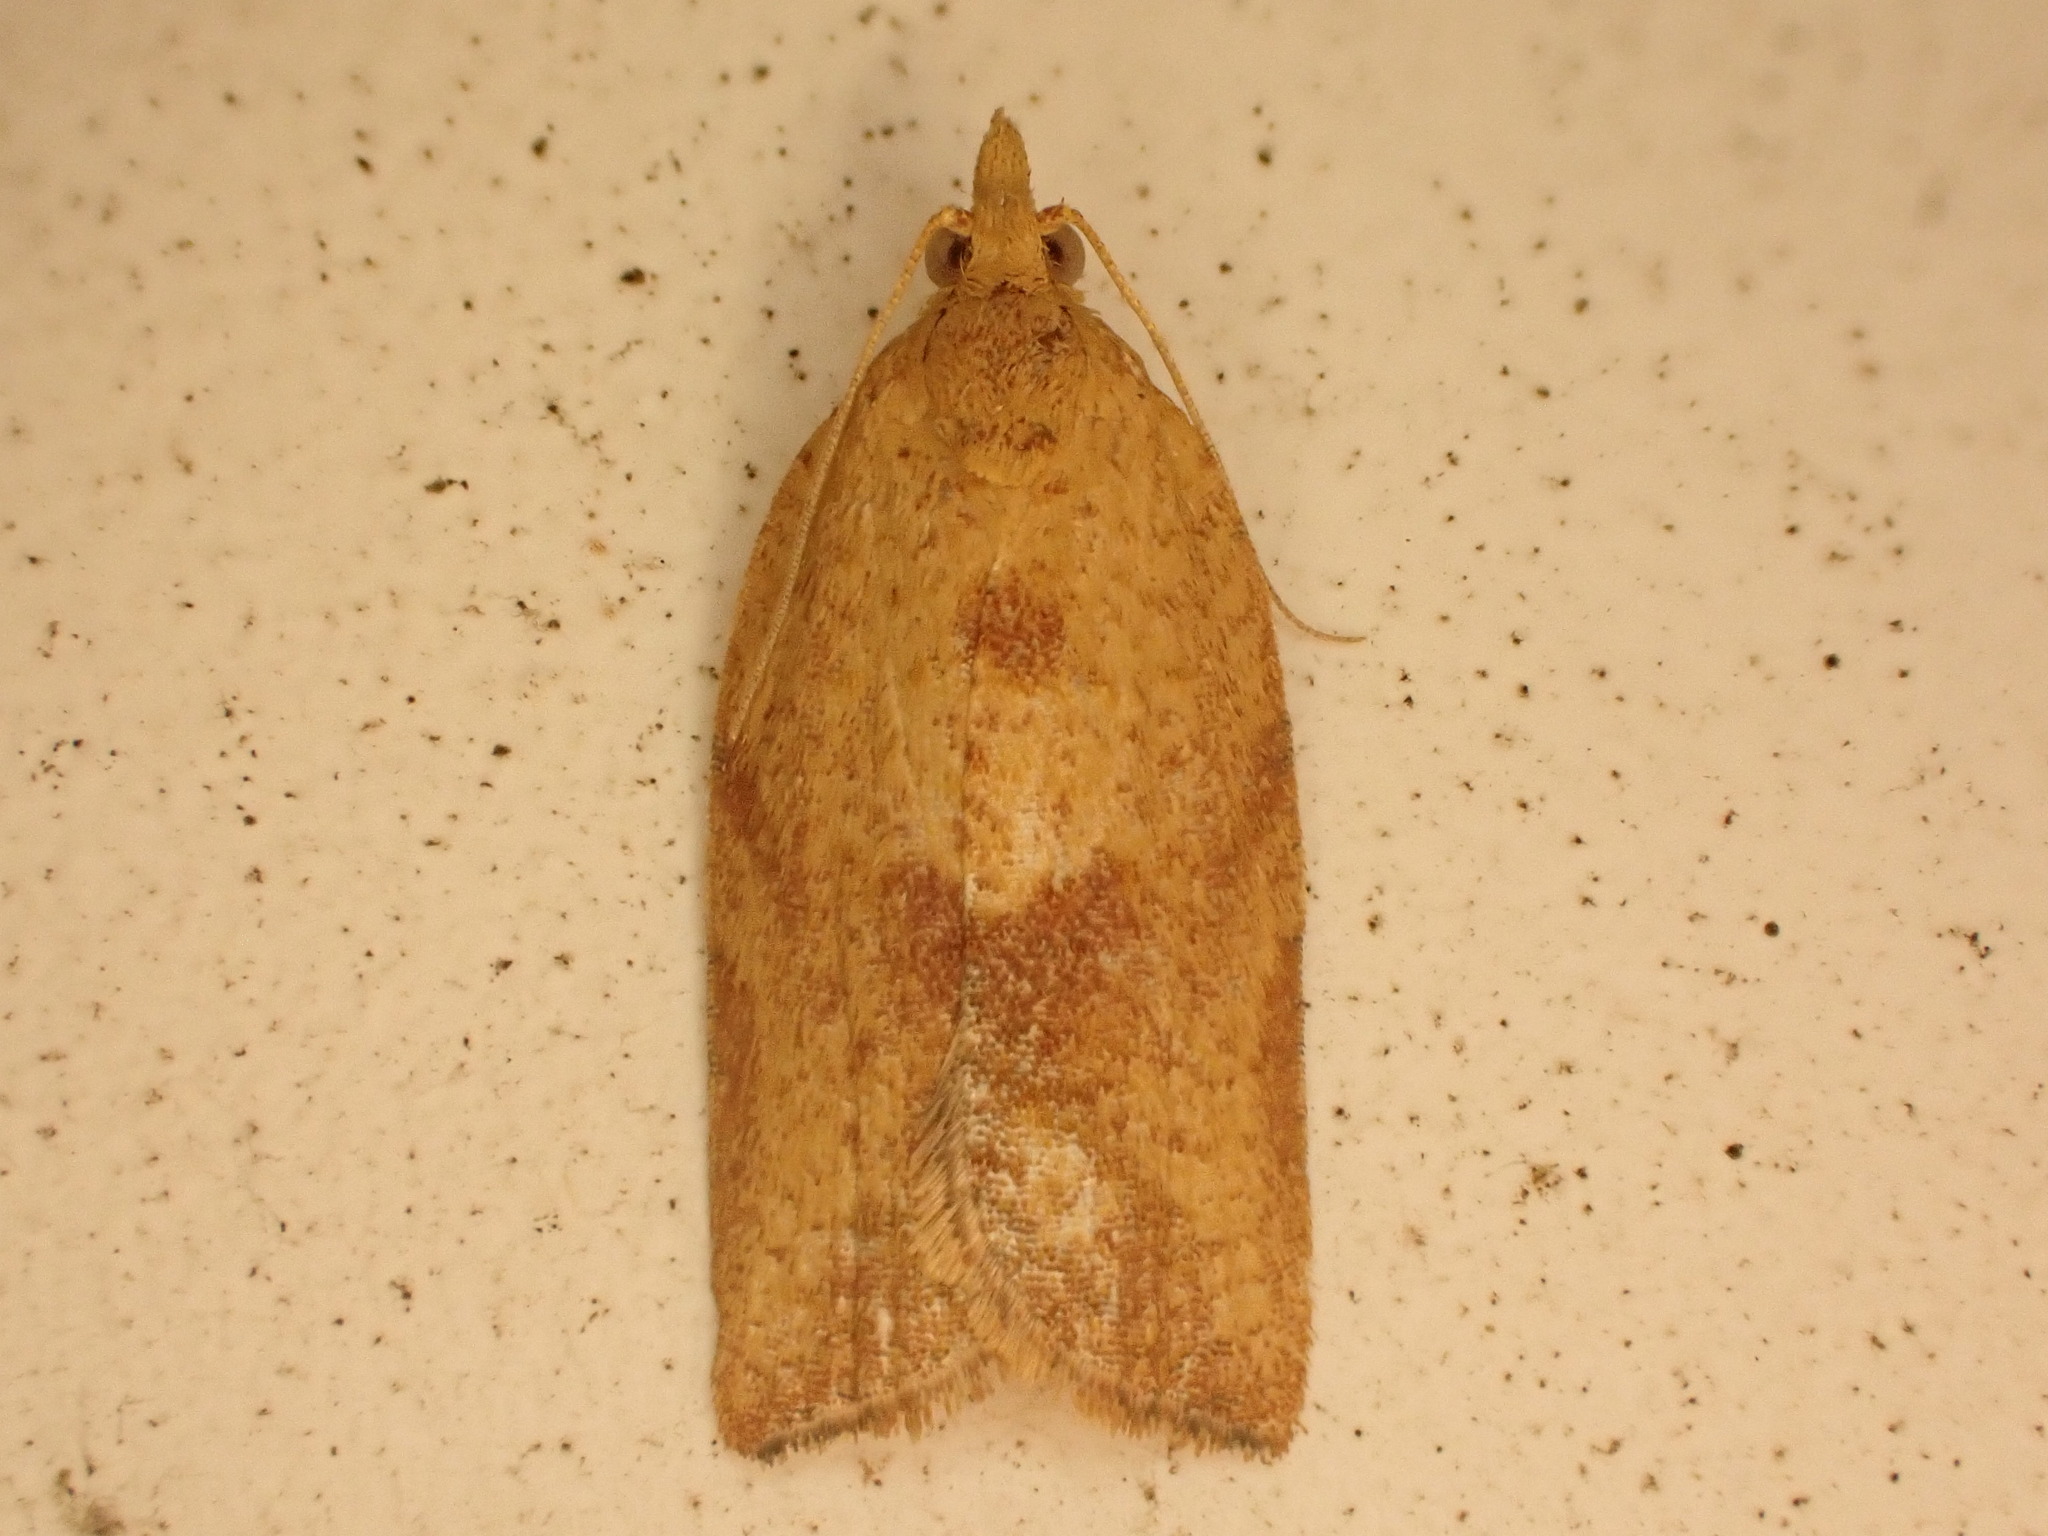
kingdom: Animalia
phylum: Arthropoda
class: Insecta
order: Lepidoptera
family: Tortricidae
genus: Epiphyas
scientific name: Epiphyas postvittana
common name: Light brown apple moth
